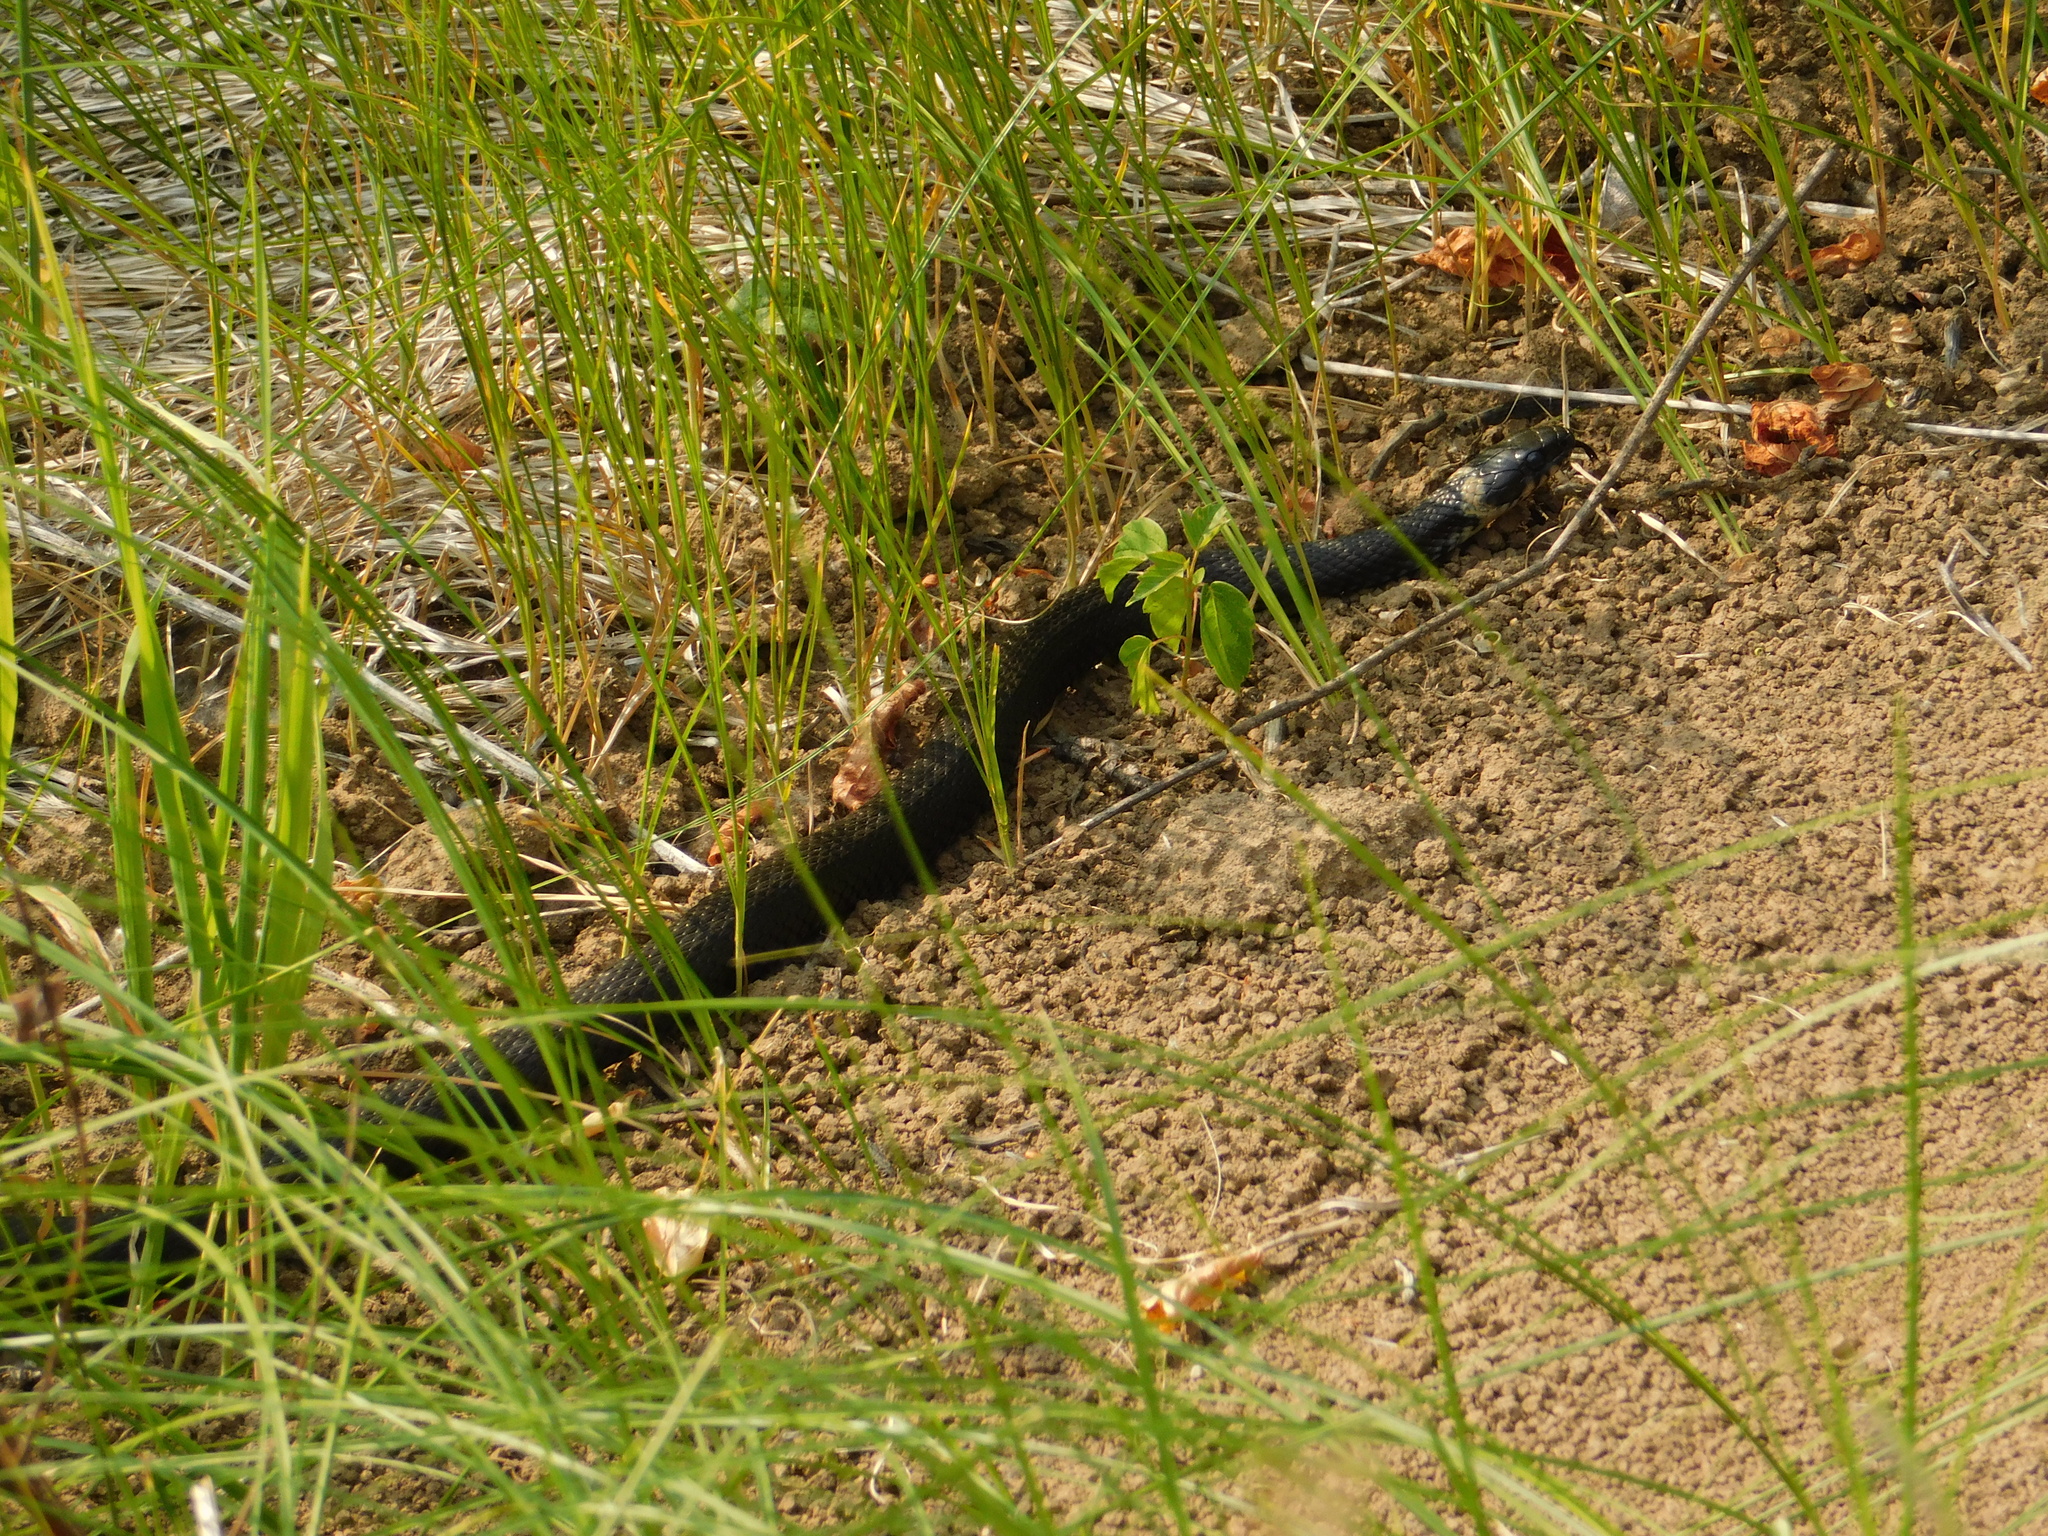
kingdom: Animalia
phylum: Chordata
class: Squamata
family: Colubridae
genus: Natrix
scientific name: Natrix natrix
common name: Grass snake
